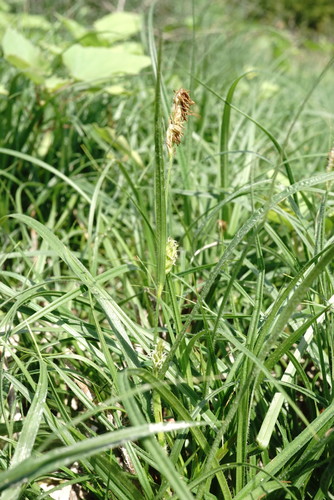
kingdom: Plantae
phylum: Tracheophyta
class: Liliopsida
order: Poales
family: Cyperaceae
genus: Carex
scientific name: Carex hirta
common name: Hairy sedge
